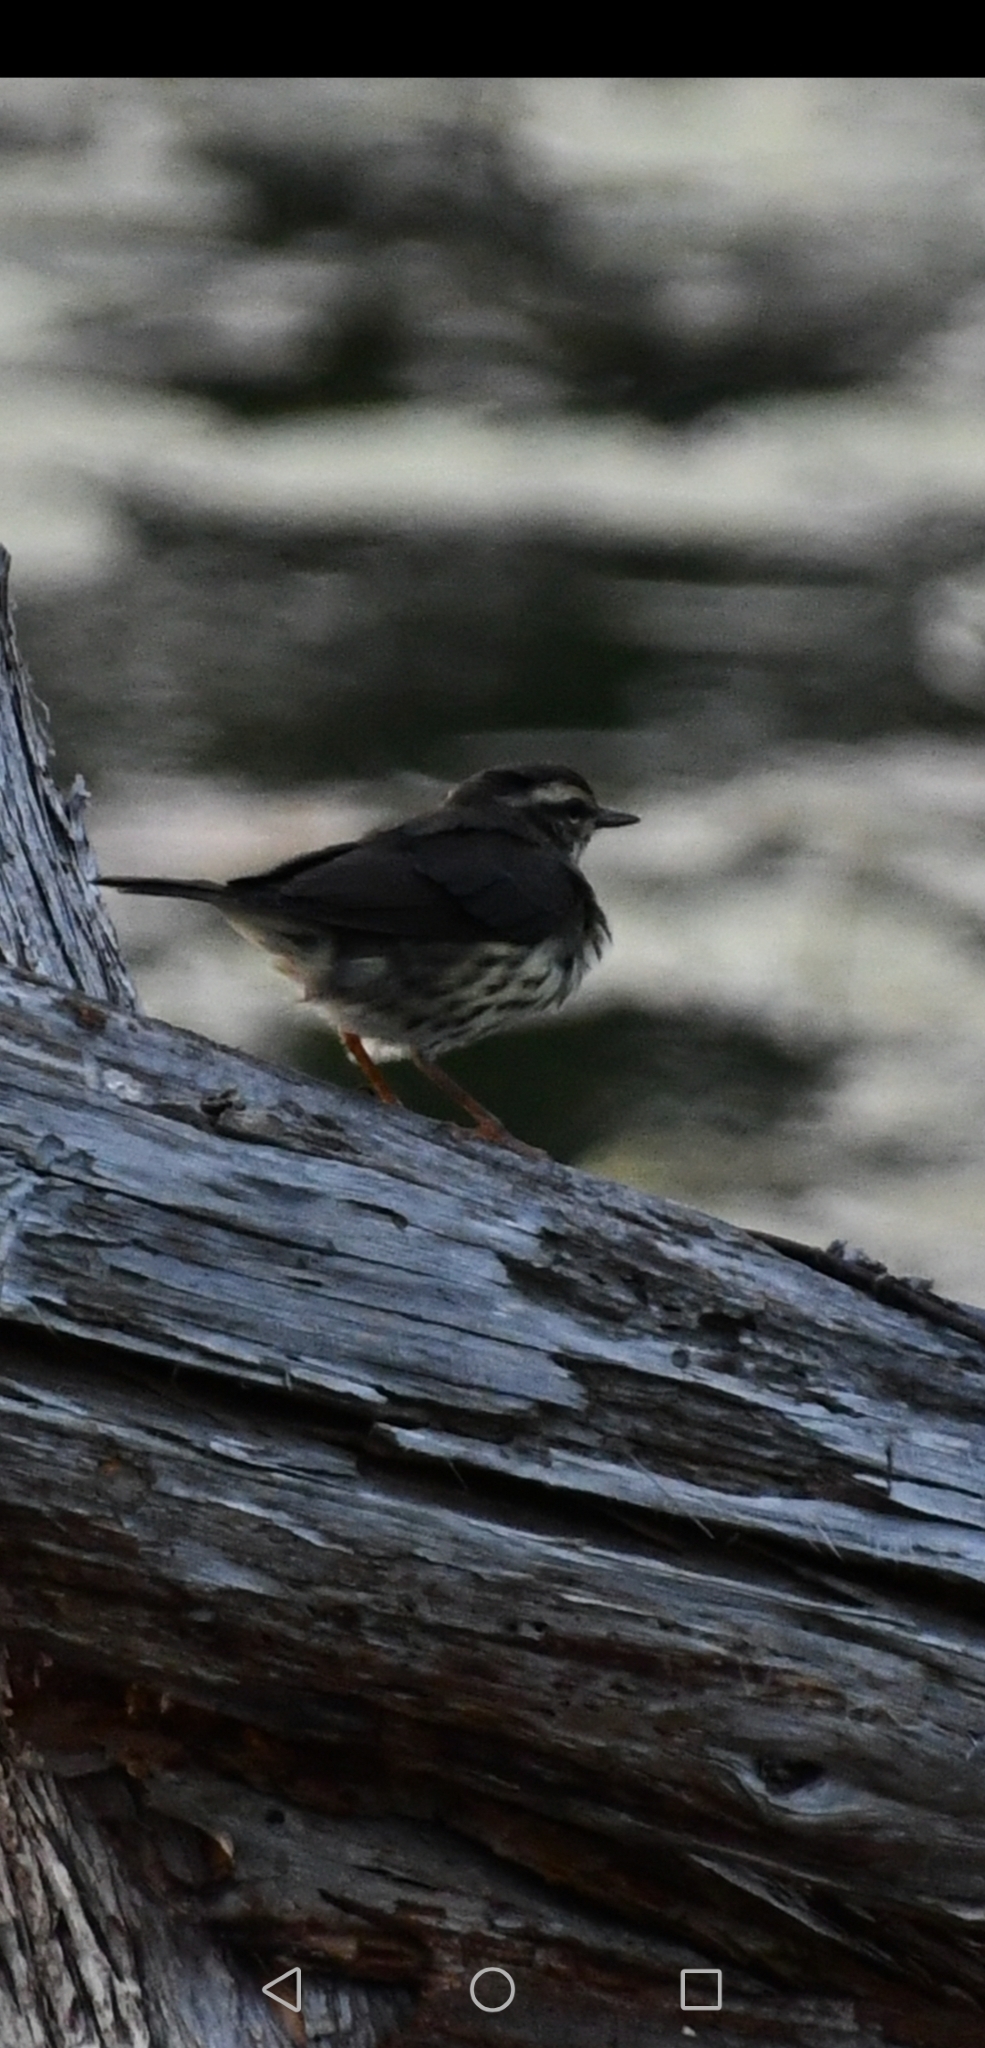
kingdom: Animalia
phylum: Chordata
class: Aves
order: Passeriformes
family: Parulidae
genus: Parkesia
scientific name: Parkesia noveboracensis
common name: Northern waterthrush
